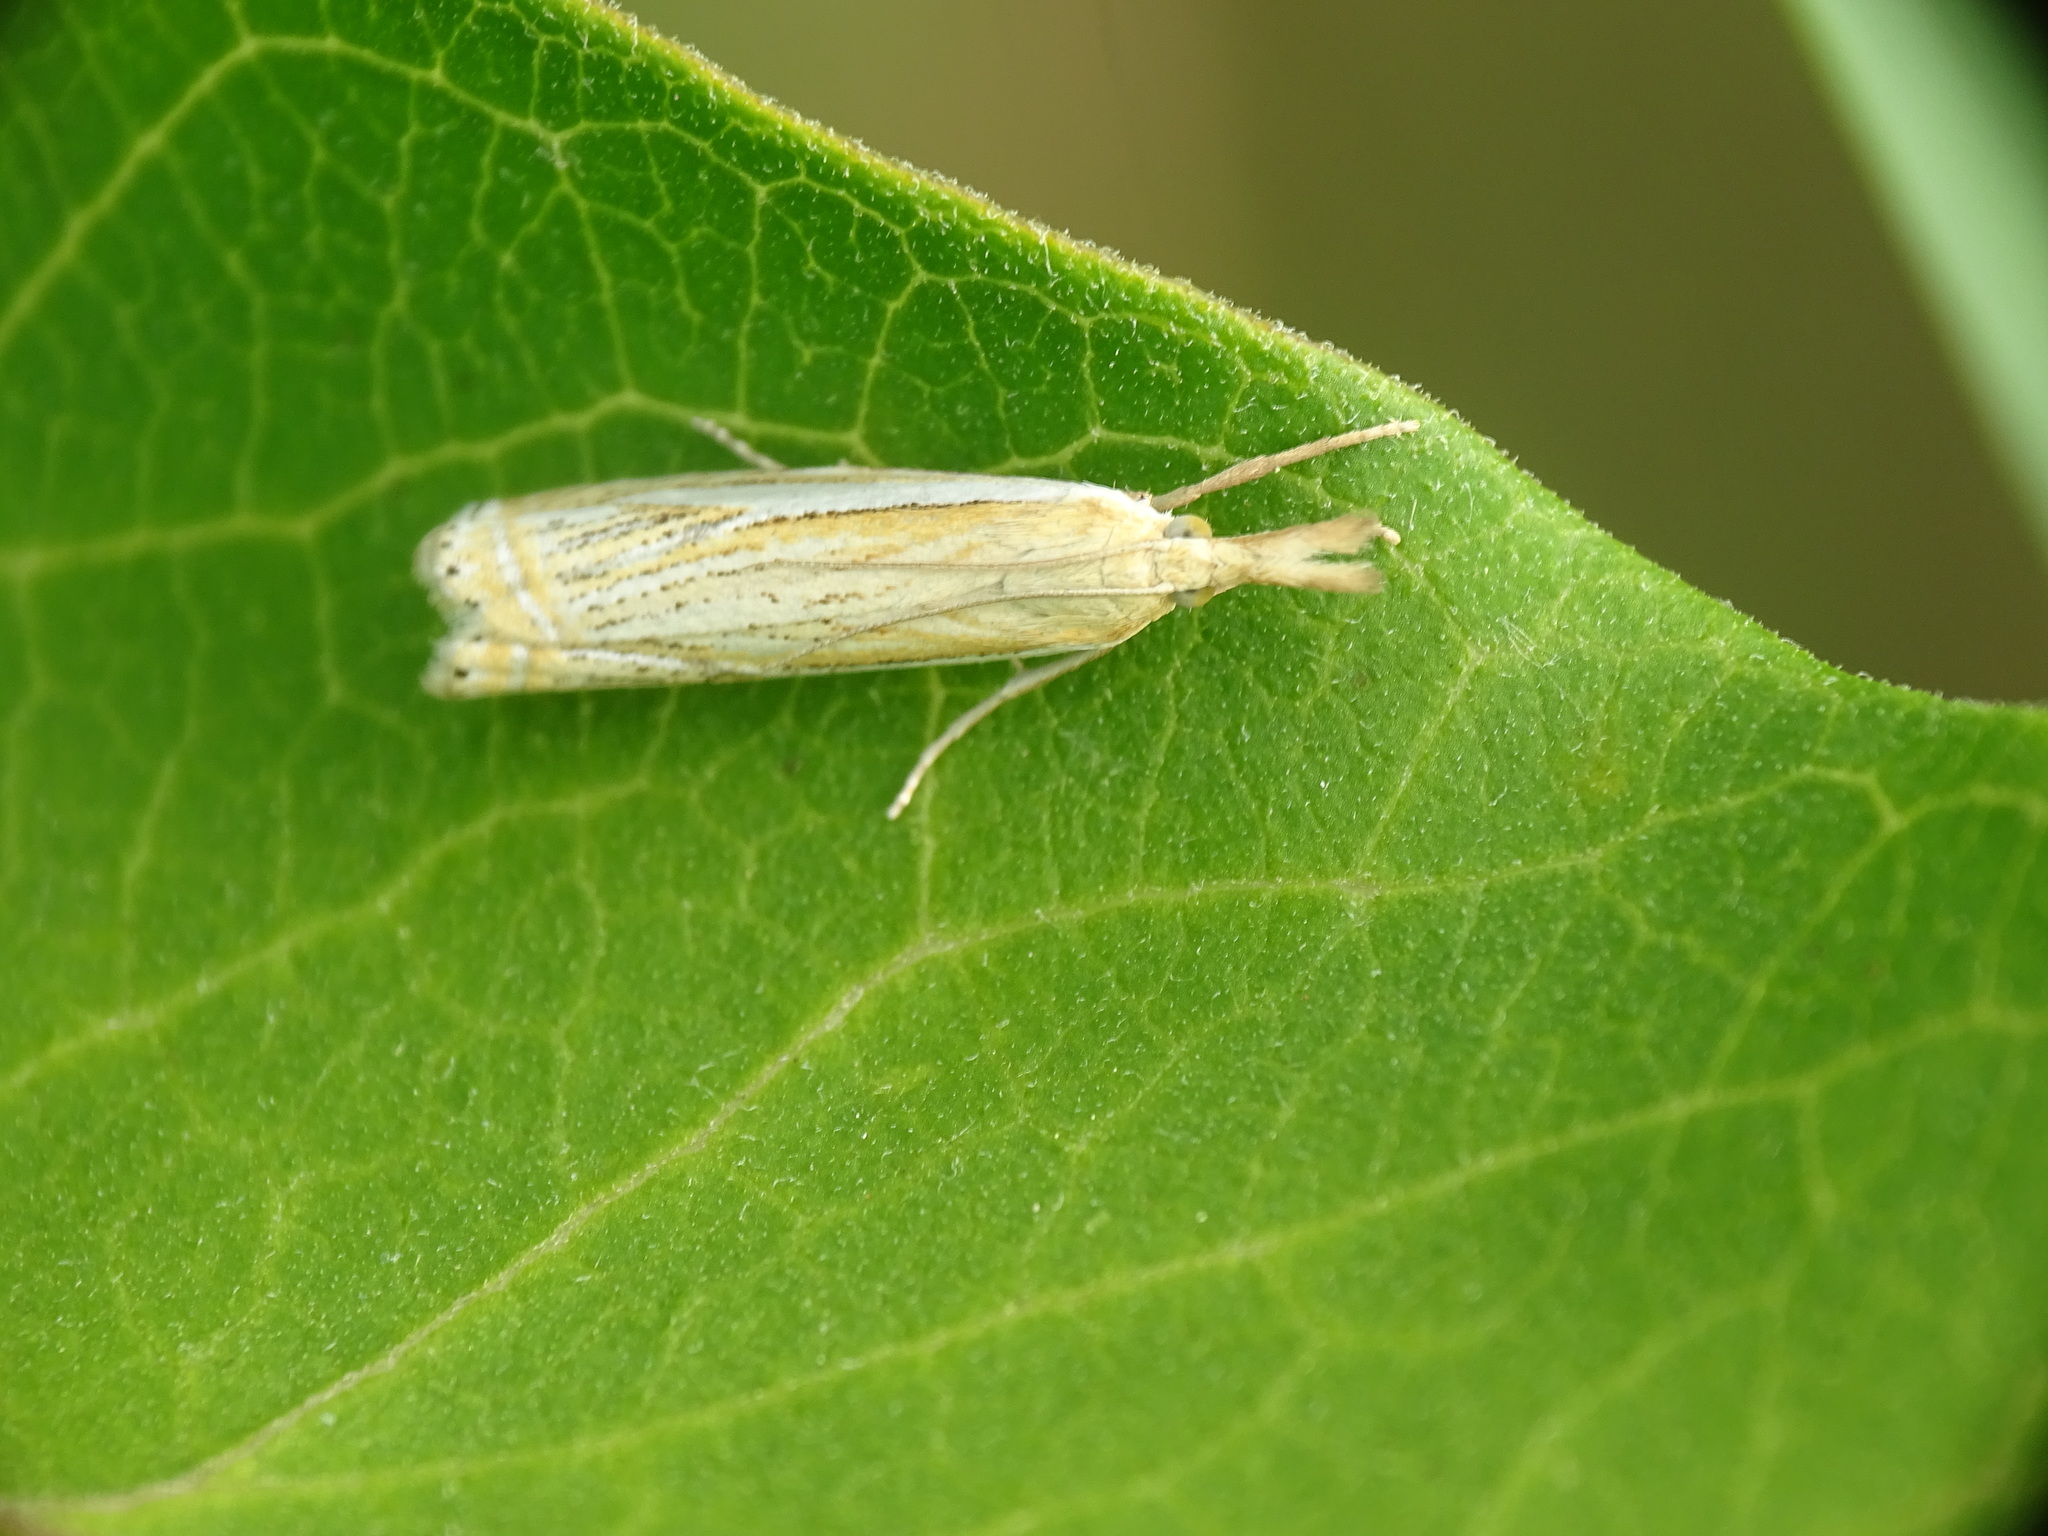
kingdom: Animalia
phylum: Arthropoda
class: Insecta
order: Lepidoptera
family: Crambidae
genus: Crambus
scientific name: Crambus saltuellus
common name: Pasture grass-veneer
